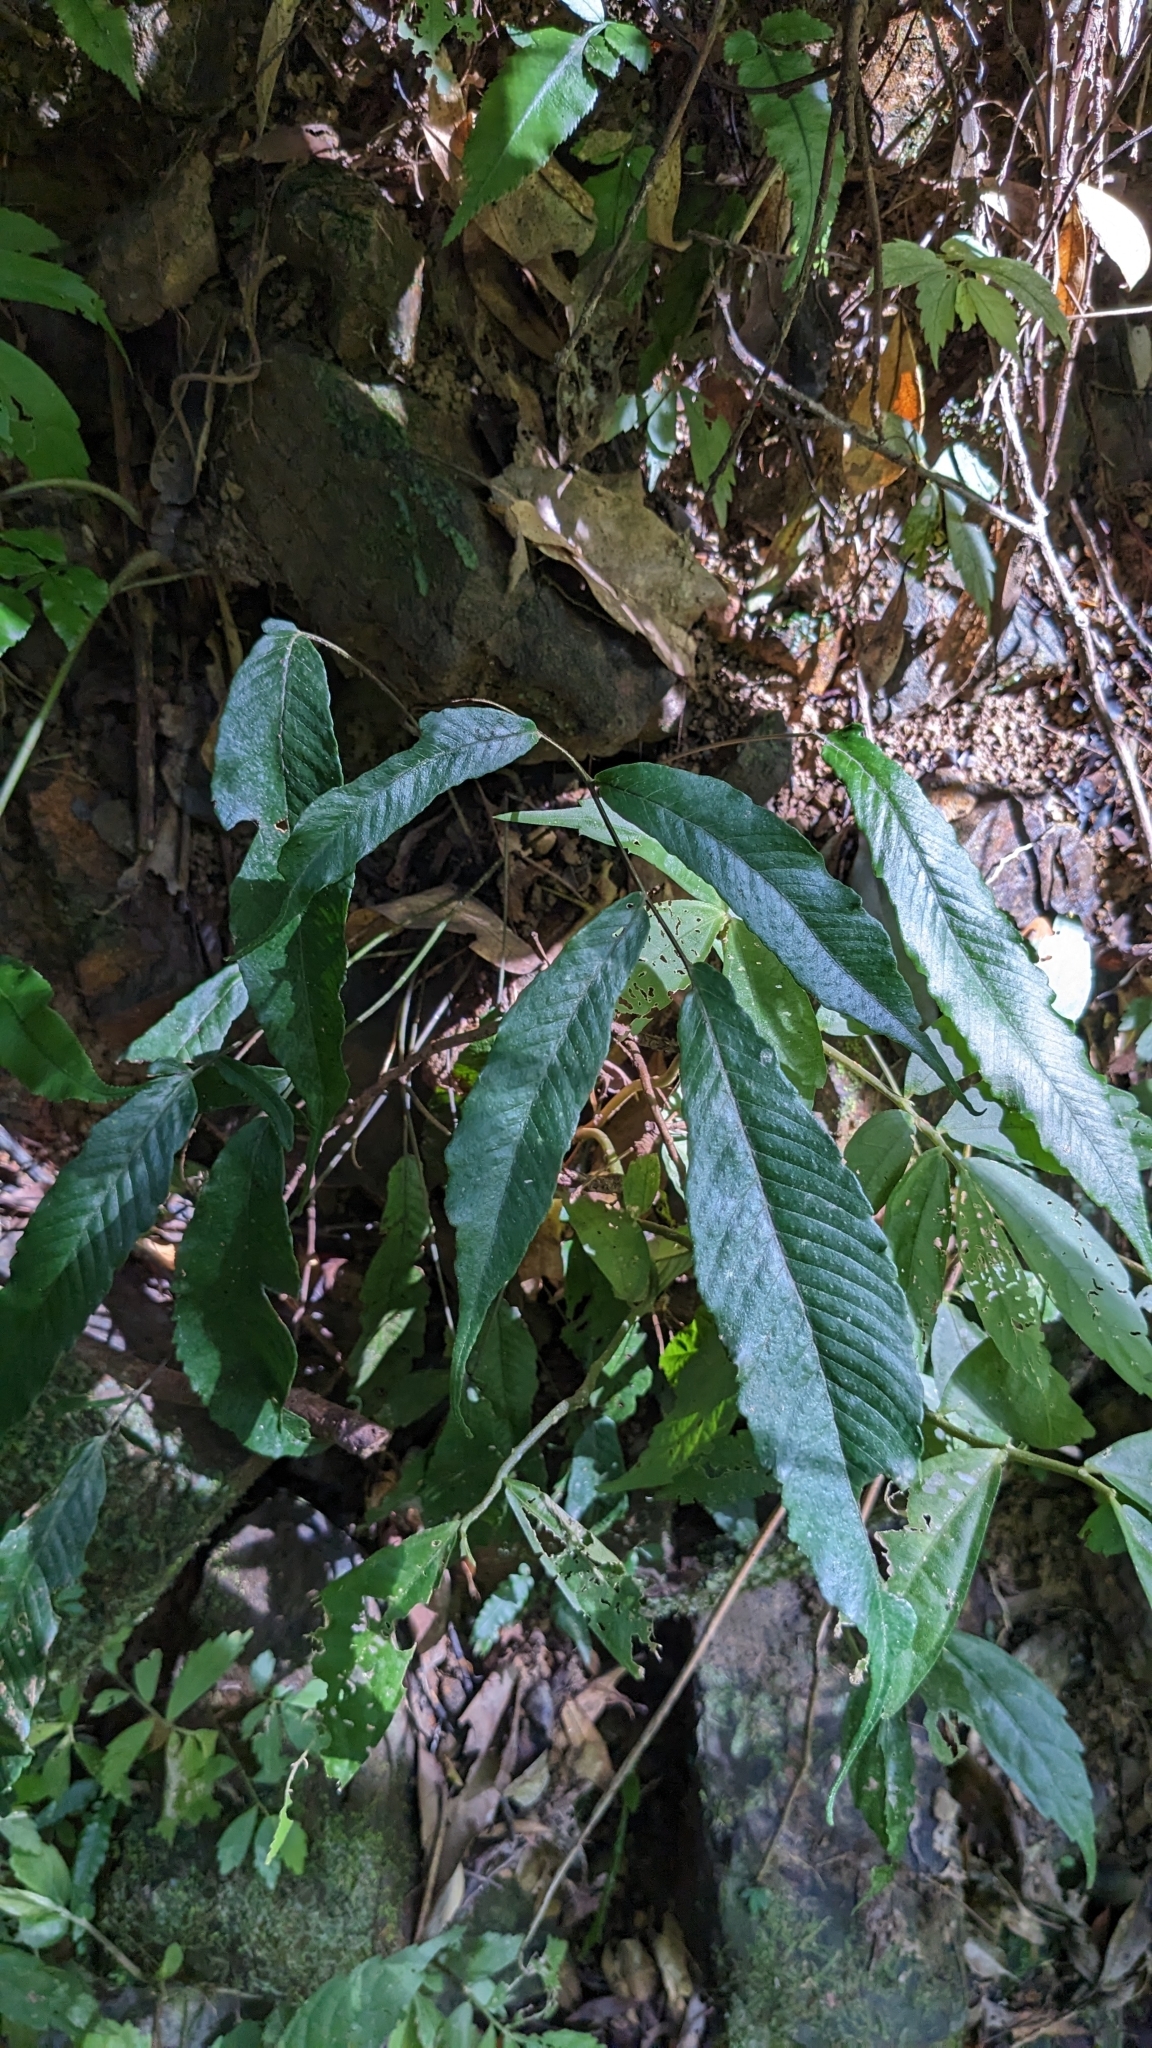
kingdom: Plantae
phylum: Tracheophyta
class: Polypodiopsida
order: Polypodiales
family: Thelypteridaceae
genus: Grypothrix
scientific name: Grypothrix ramosii
